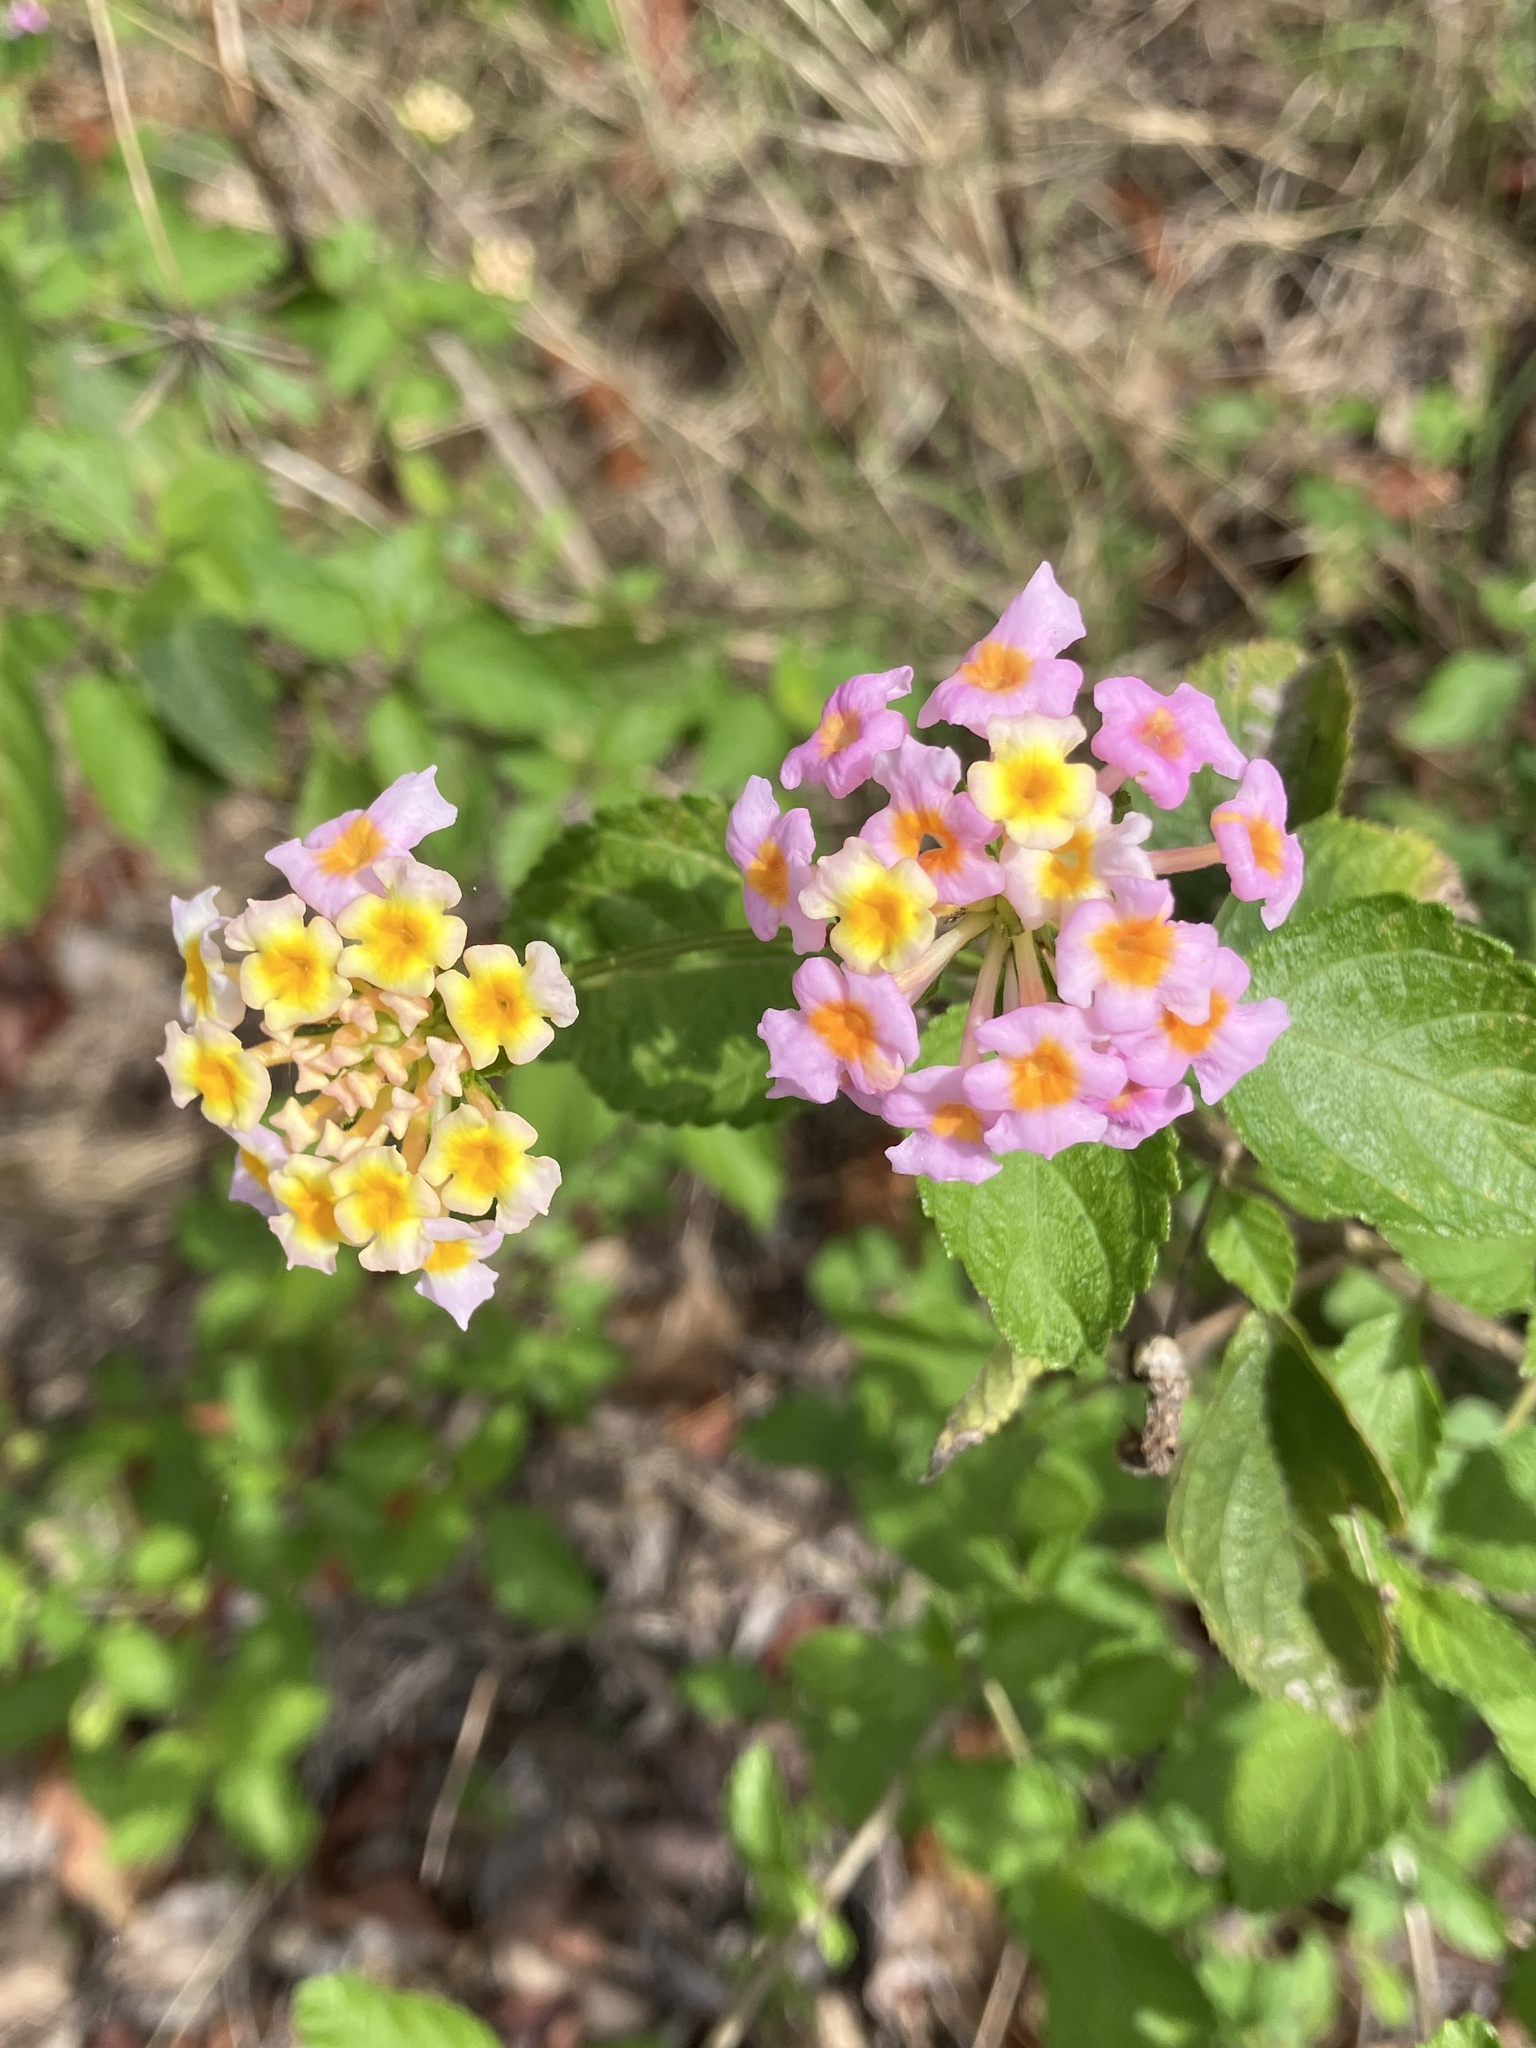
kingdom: Plantae
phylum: Tracheophyta
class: Magnoliopsida
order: Lamiales
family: Verbenaceae
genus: Lantana
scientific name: Lantana strigocamara
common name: Lantana
